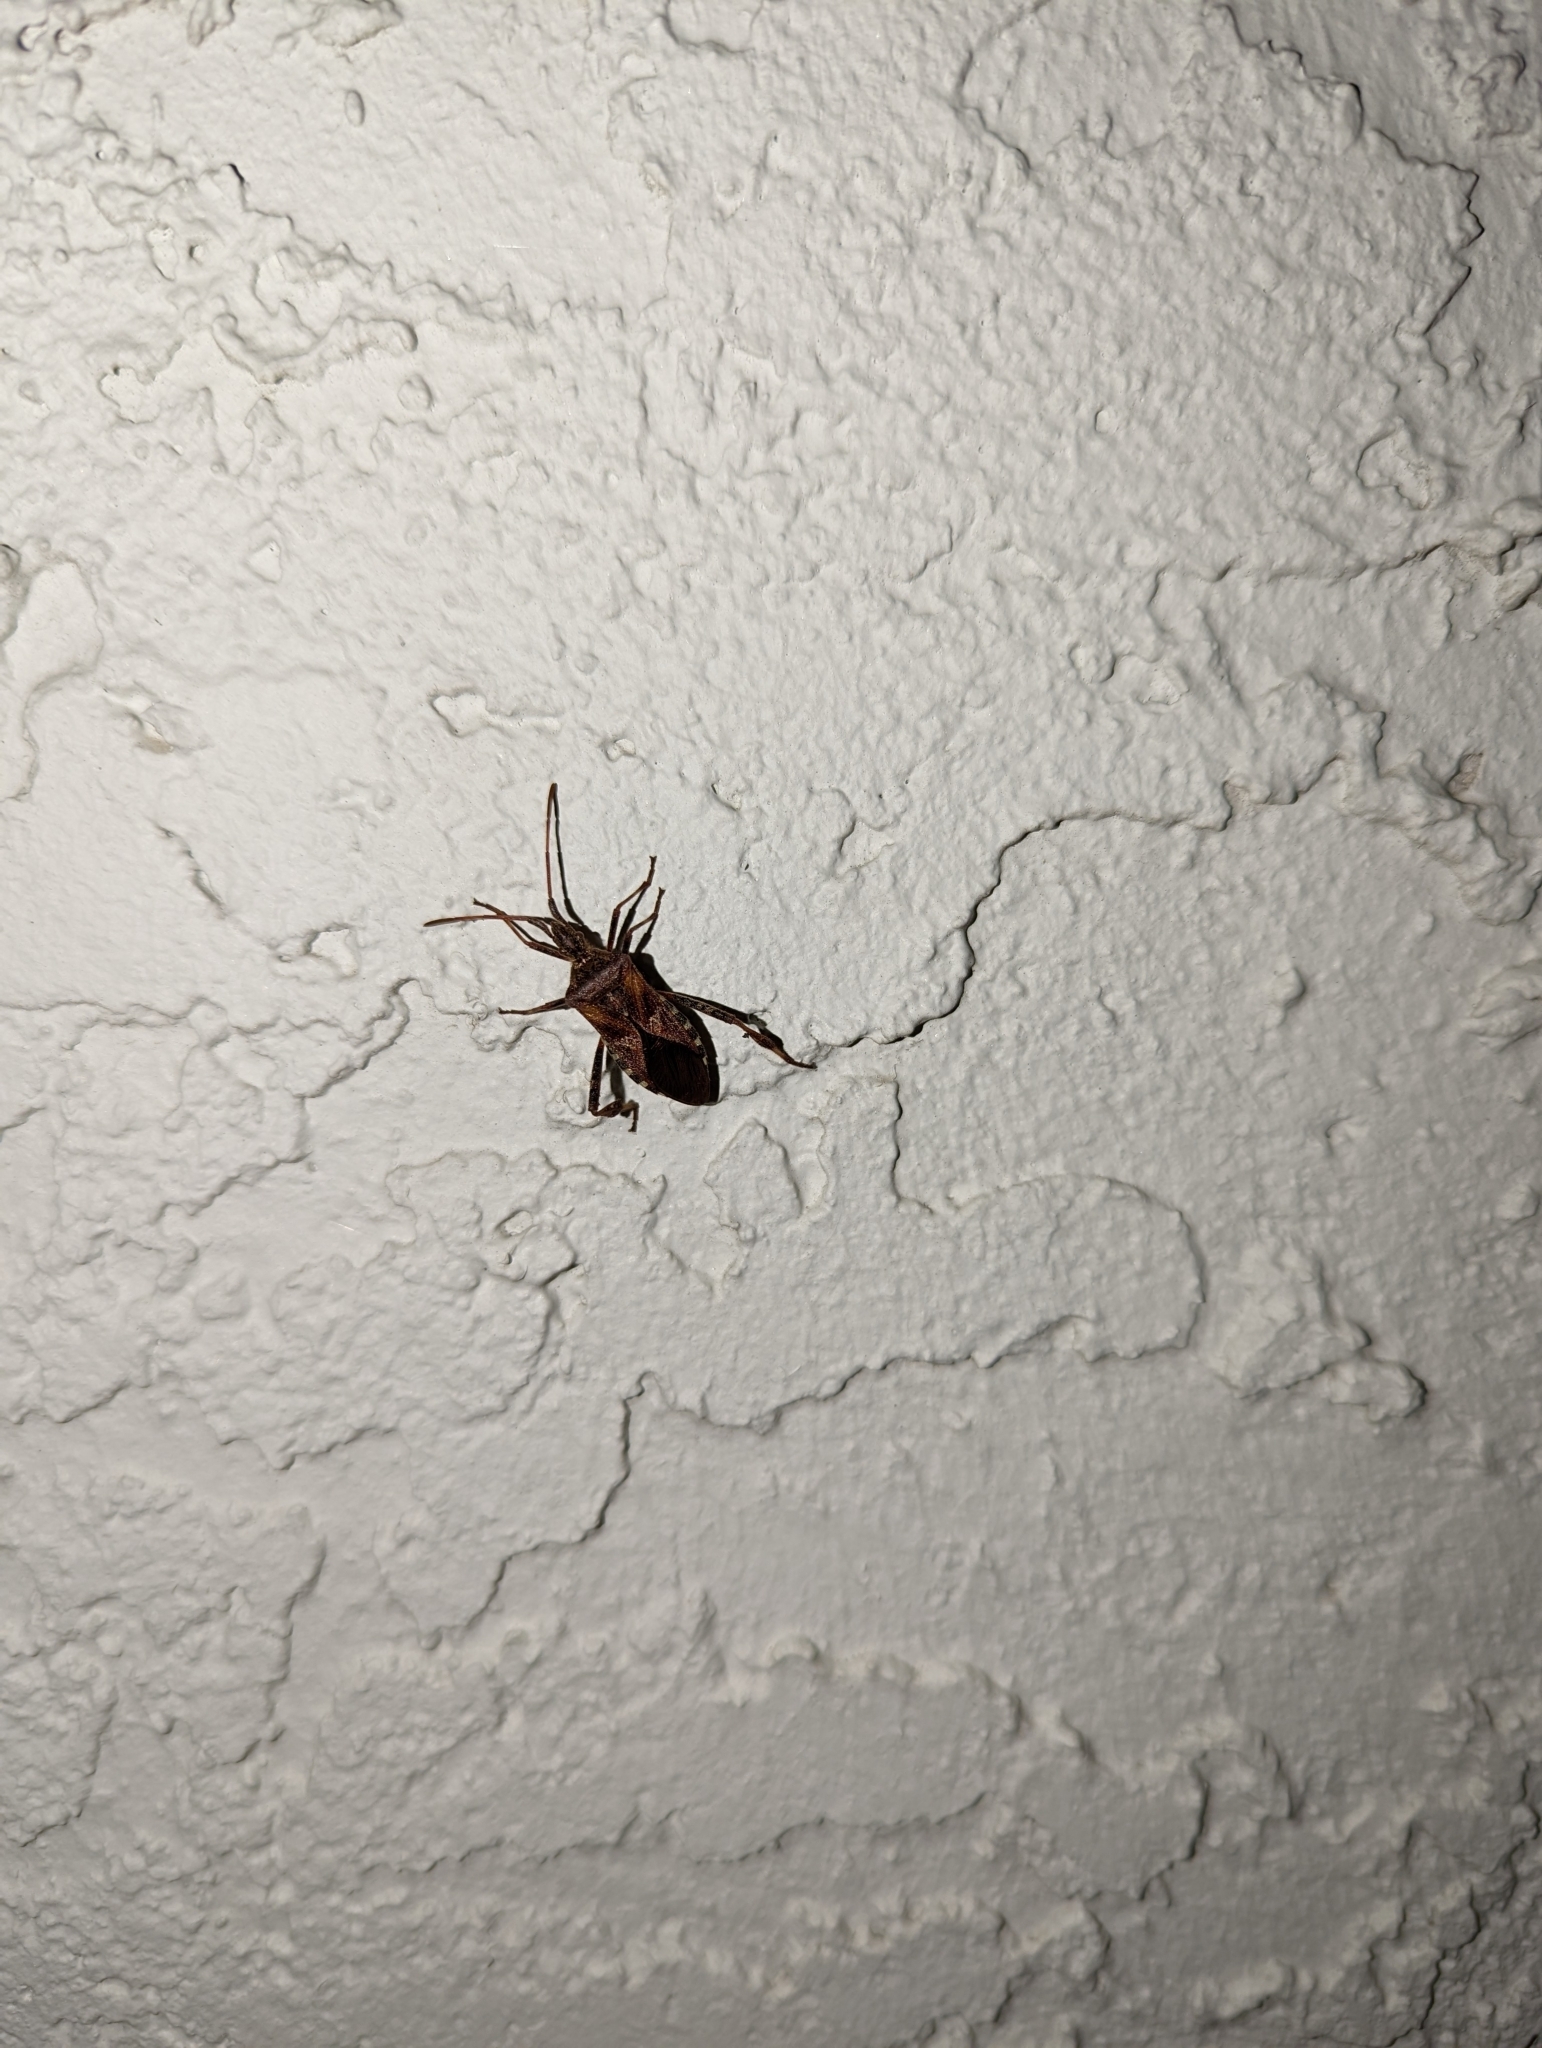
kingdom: Animalia
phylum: Arthropoda
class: Insecta
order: Hemiptera
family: Coreidae
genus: Leptoglossus
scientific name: Leptoglossus occidentalis
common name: Western conifer-seed bug
